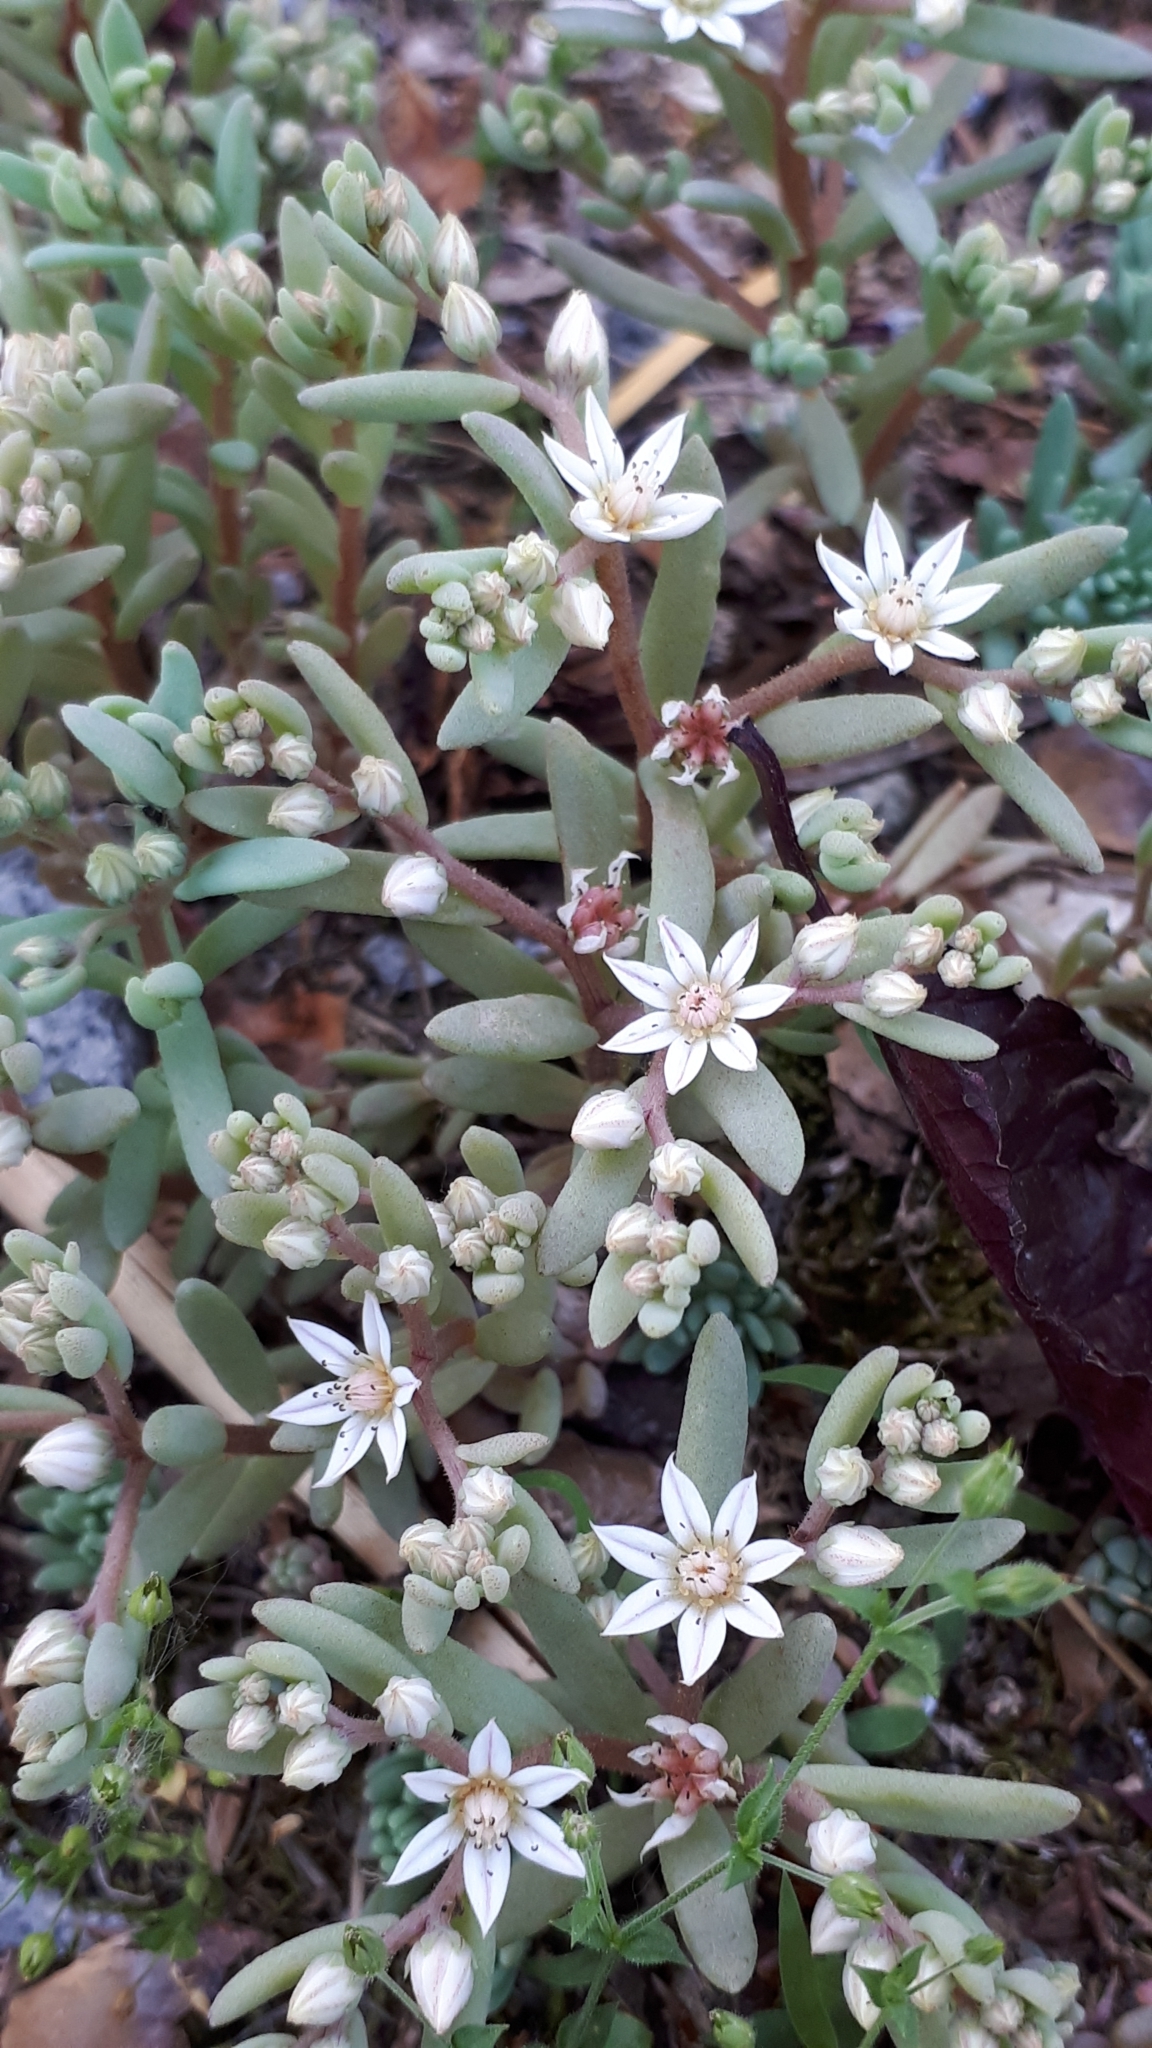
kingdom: Plantae
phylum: Tracheophyta
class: Magnoliopsida
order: Saxifragales
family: Crassulaceae
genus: Sedum
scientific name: Sedum hispanicum
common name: Spanish stonecrop
